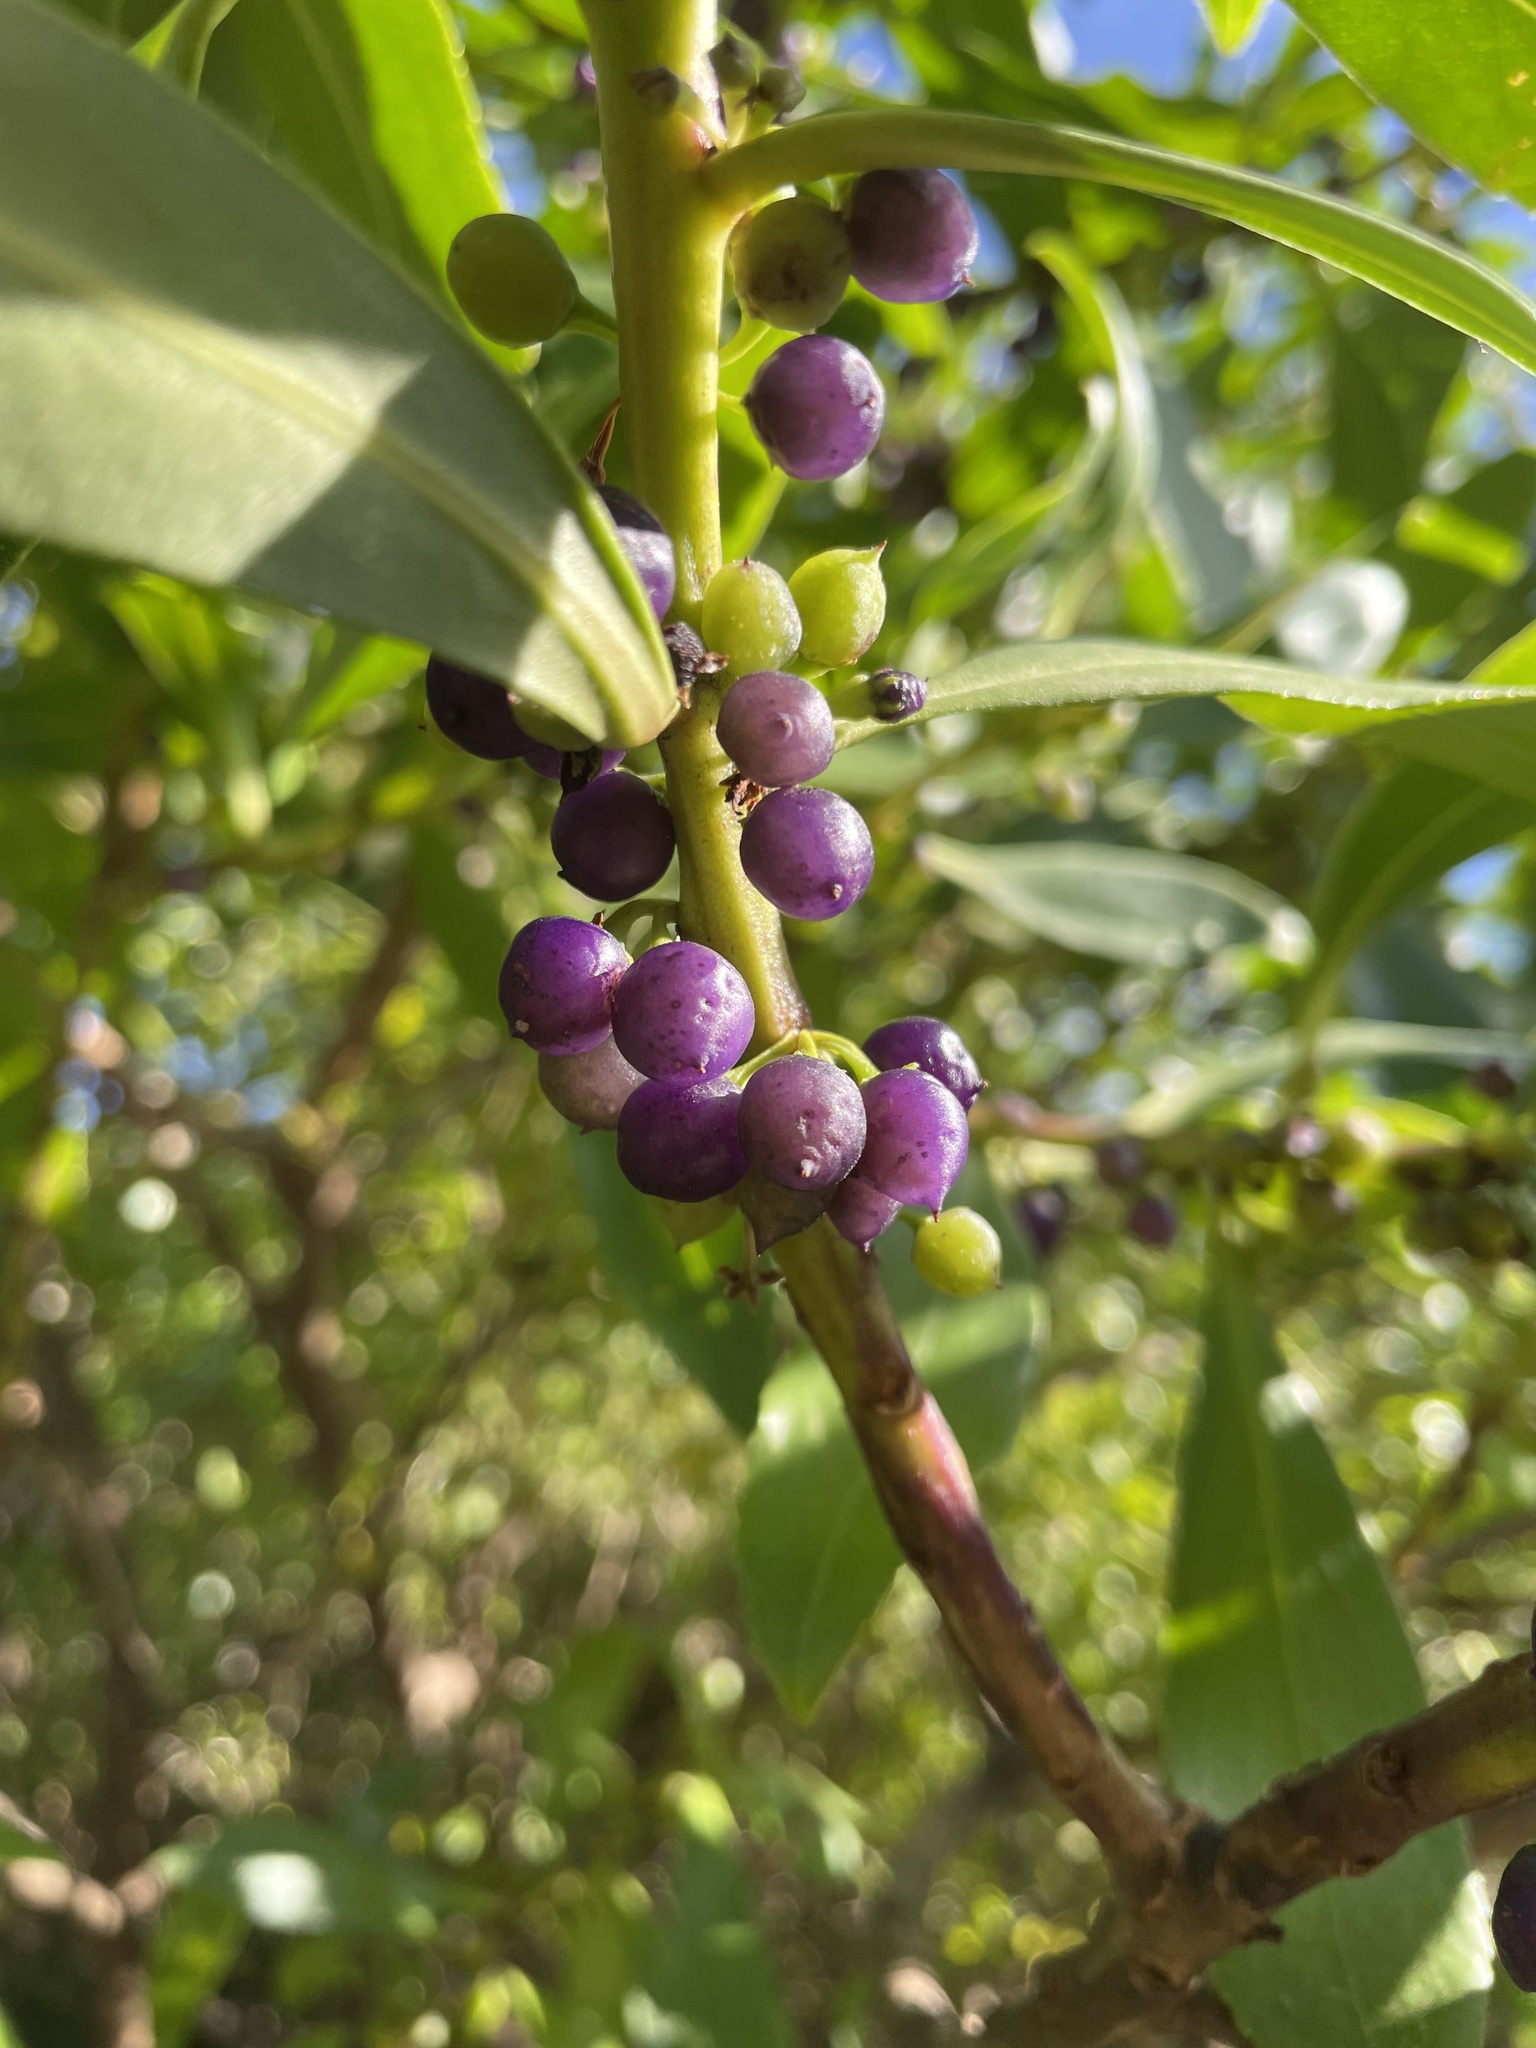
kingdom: Plantae
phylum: Tracheophyta
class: Magnoliopsida
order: Lamiales
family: Scrophulariaceae
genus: Myoporum
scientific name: Myoporum insulare
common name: Common boobialla
